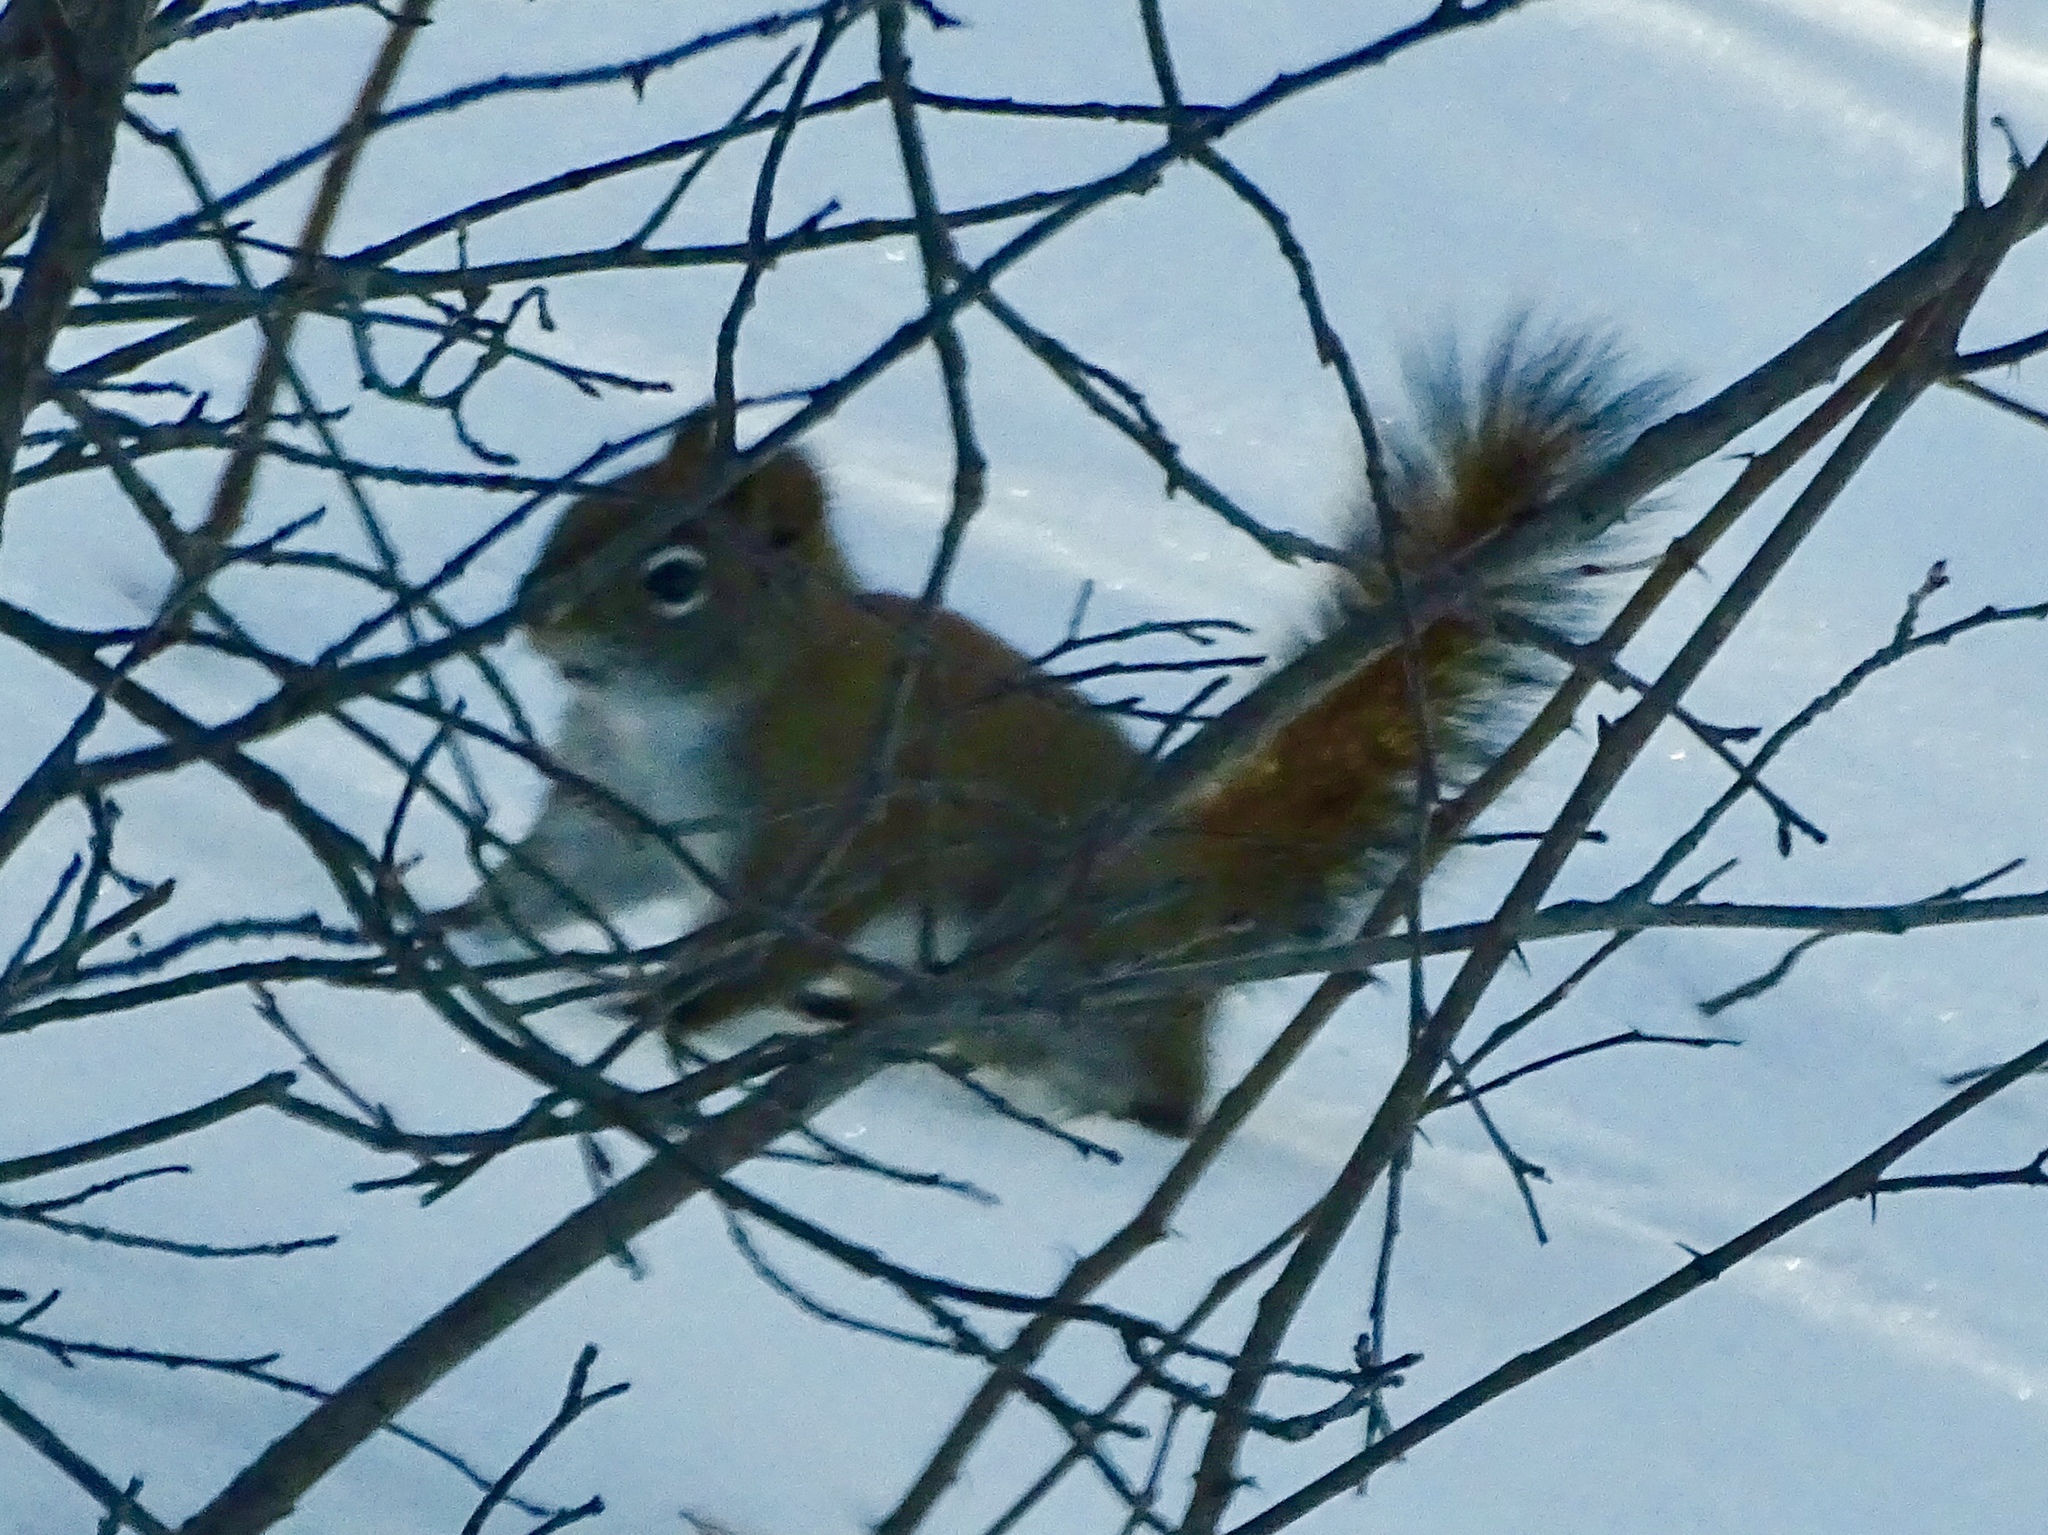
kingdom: Animalia
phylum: Chordata
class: Mammalia
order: Rodentia
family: Sciuridae
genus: Tamiasciurus
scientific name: Tamiasciurus hudsonicus
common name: Red squirrel
